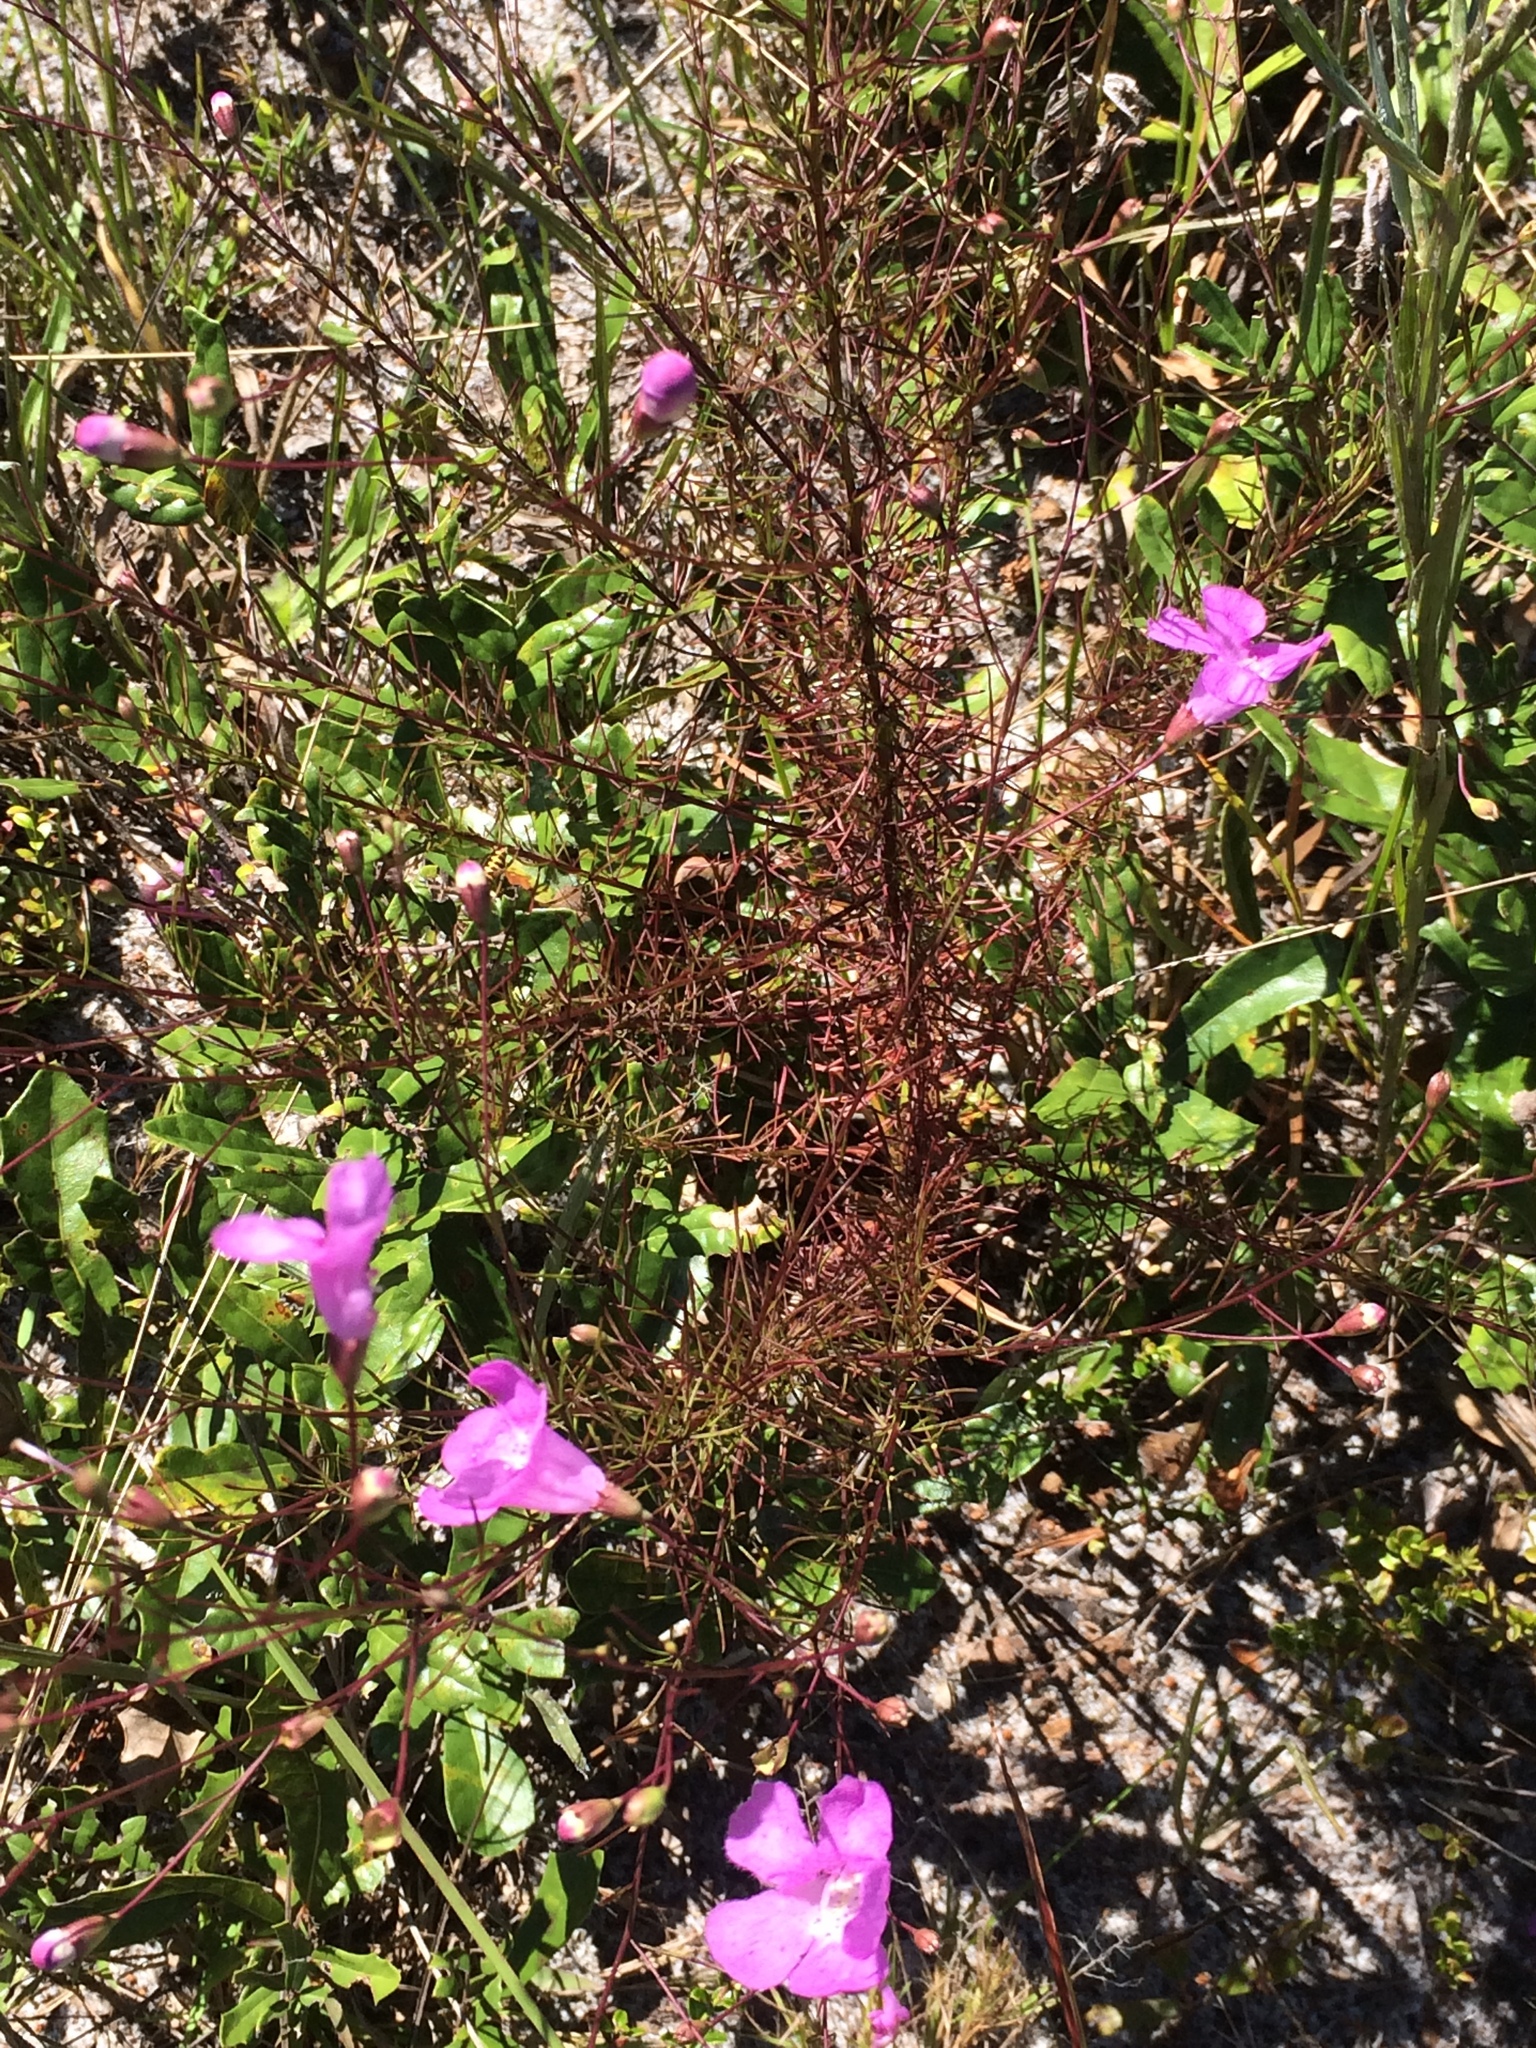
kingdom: Plantae
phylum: Tracheophyta
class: Magnoliopsida
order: Lamiales
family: Orobanchaceae
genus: Agalinis
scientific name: Agalinis filifolia
